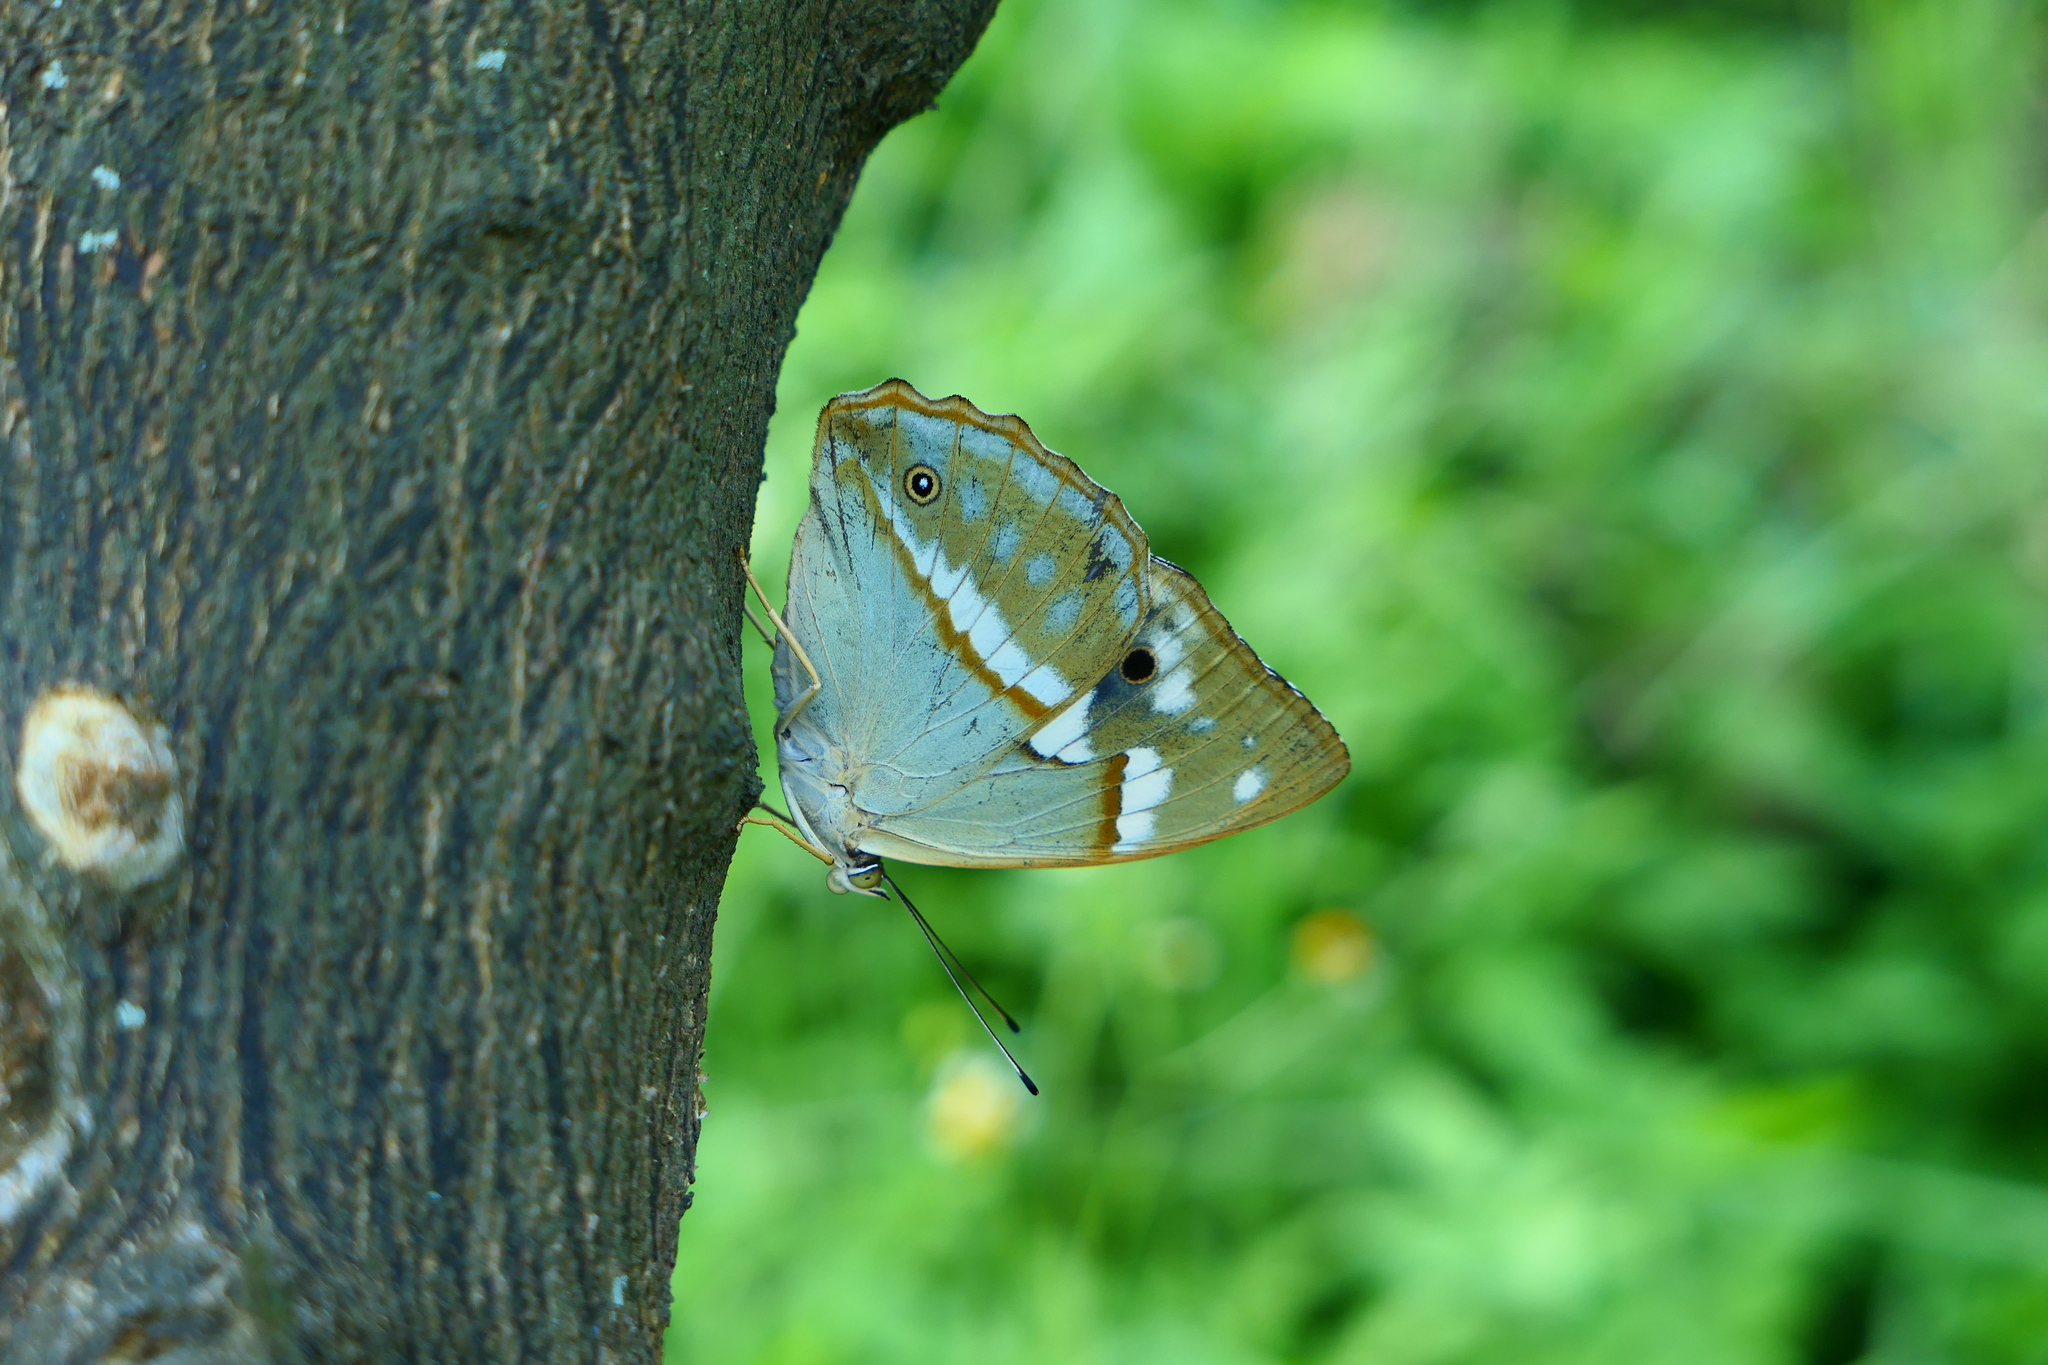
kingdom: Animalia
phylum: Arthropoda
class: Insecta
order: Lepidoptera
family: Nymphalidae
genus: Apatura
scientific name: Apatura Chitoria chrysolora
